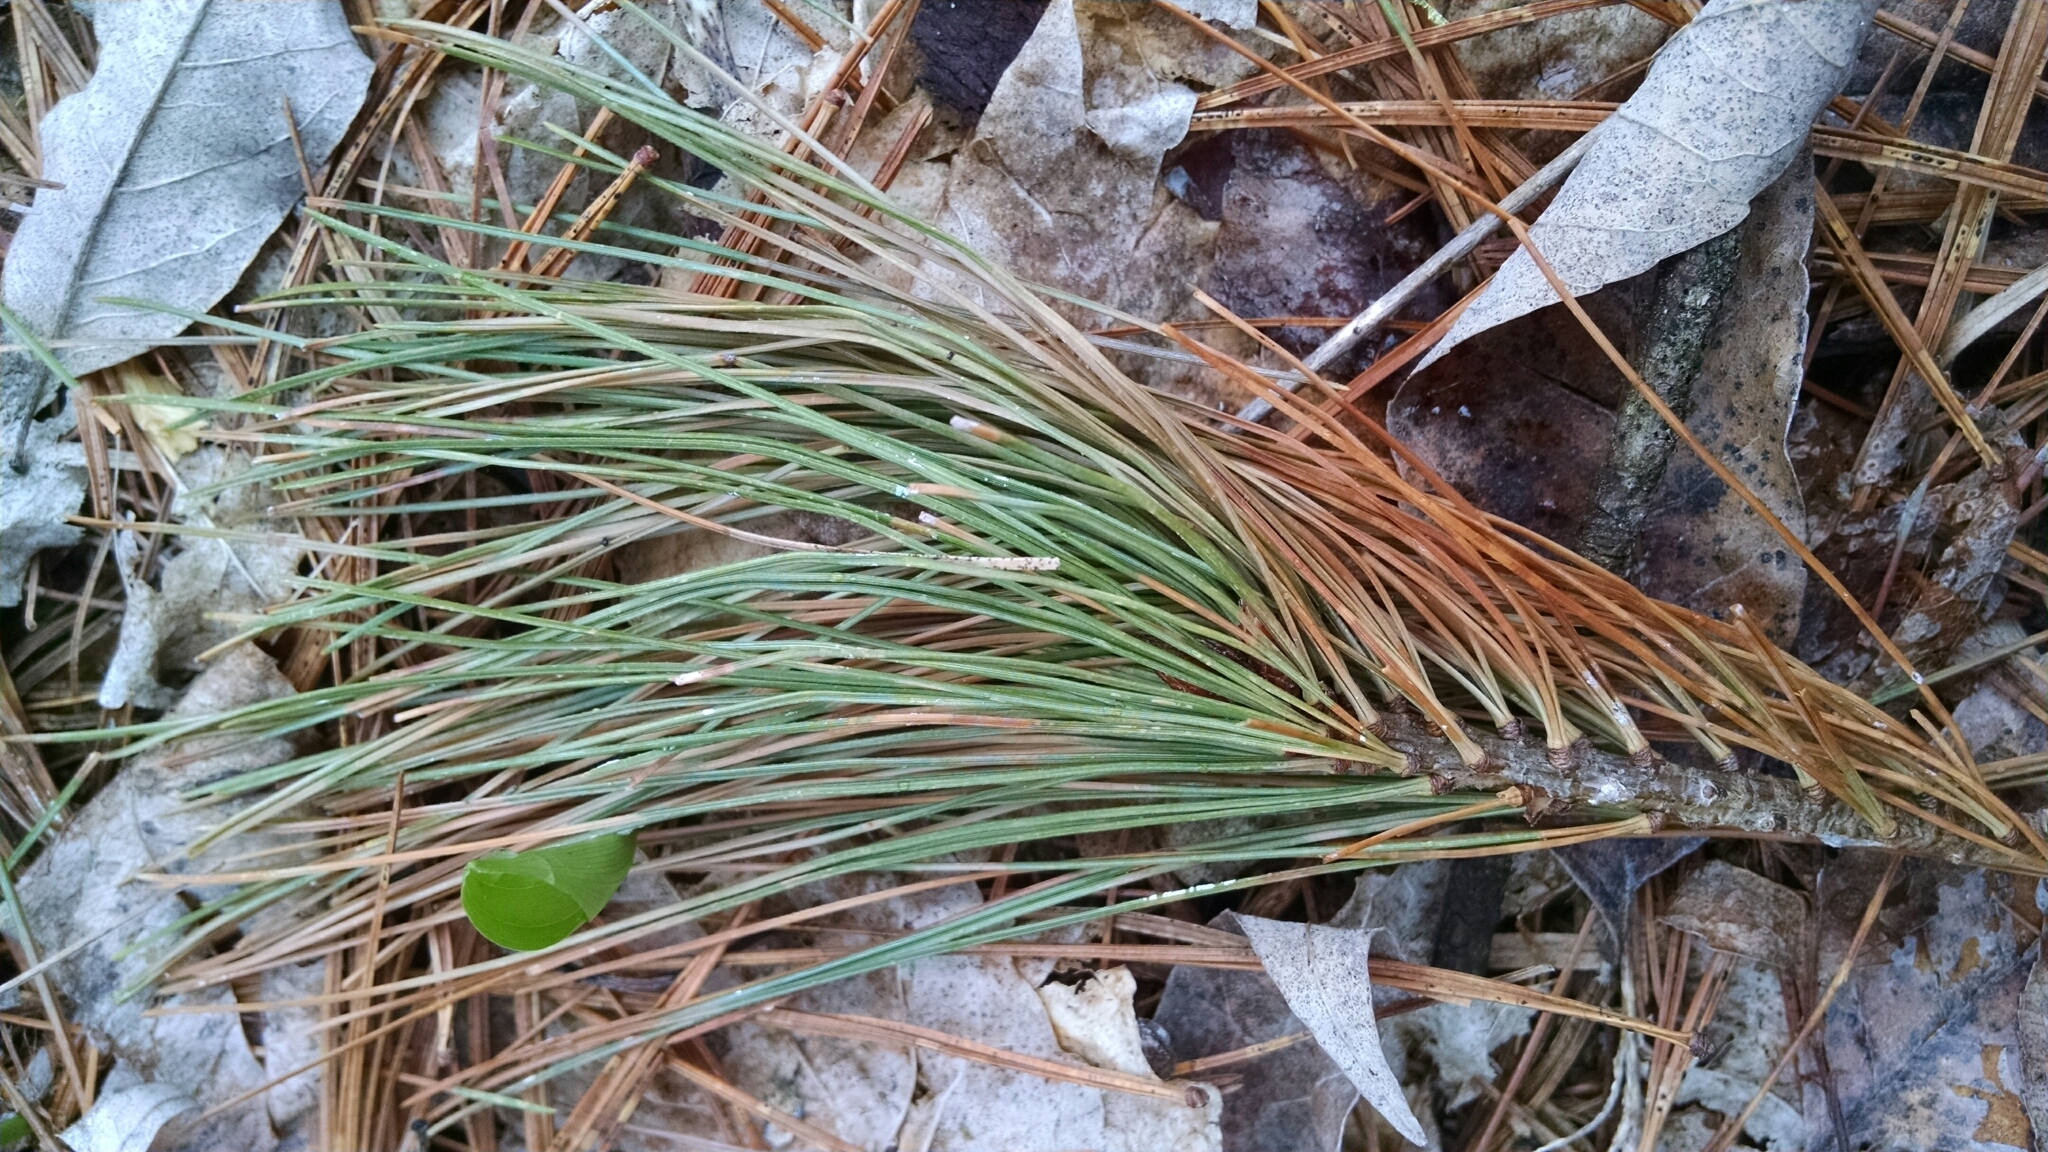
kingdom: Plantae
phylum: Tracheophyta
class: Pinopsida
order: Pinales
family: Pinaceae
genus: Pinus
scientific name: Pinus strobus
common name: Weymouth pine
